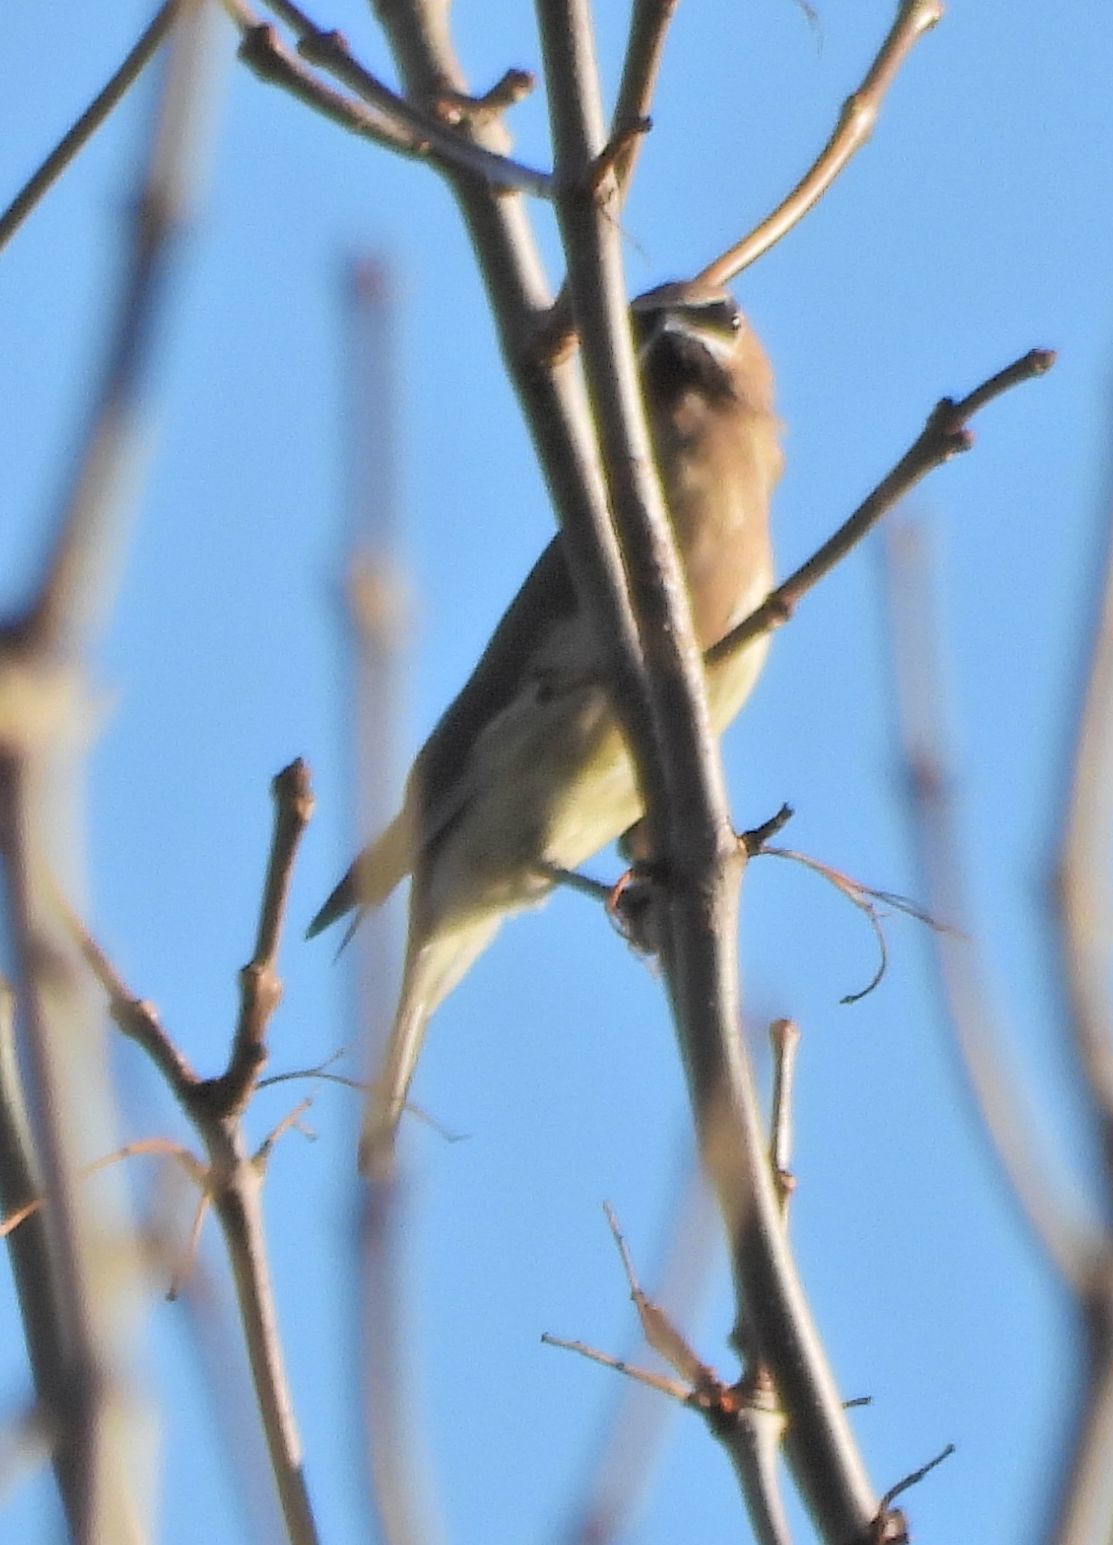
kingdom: Animalia
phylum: Chordata
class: Aves
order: Passeriformes
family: Bombycillidae
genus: Bombycilla
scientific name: Bombycilla cedrorum
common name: Cedar waxwing
